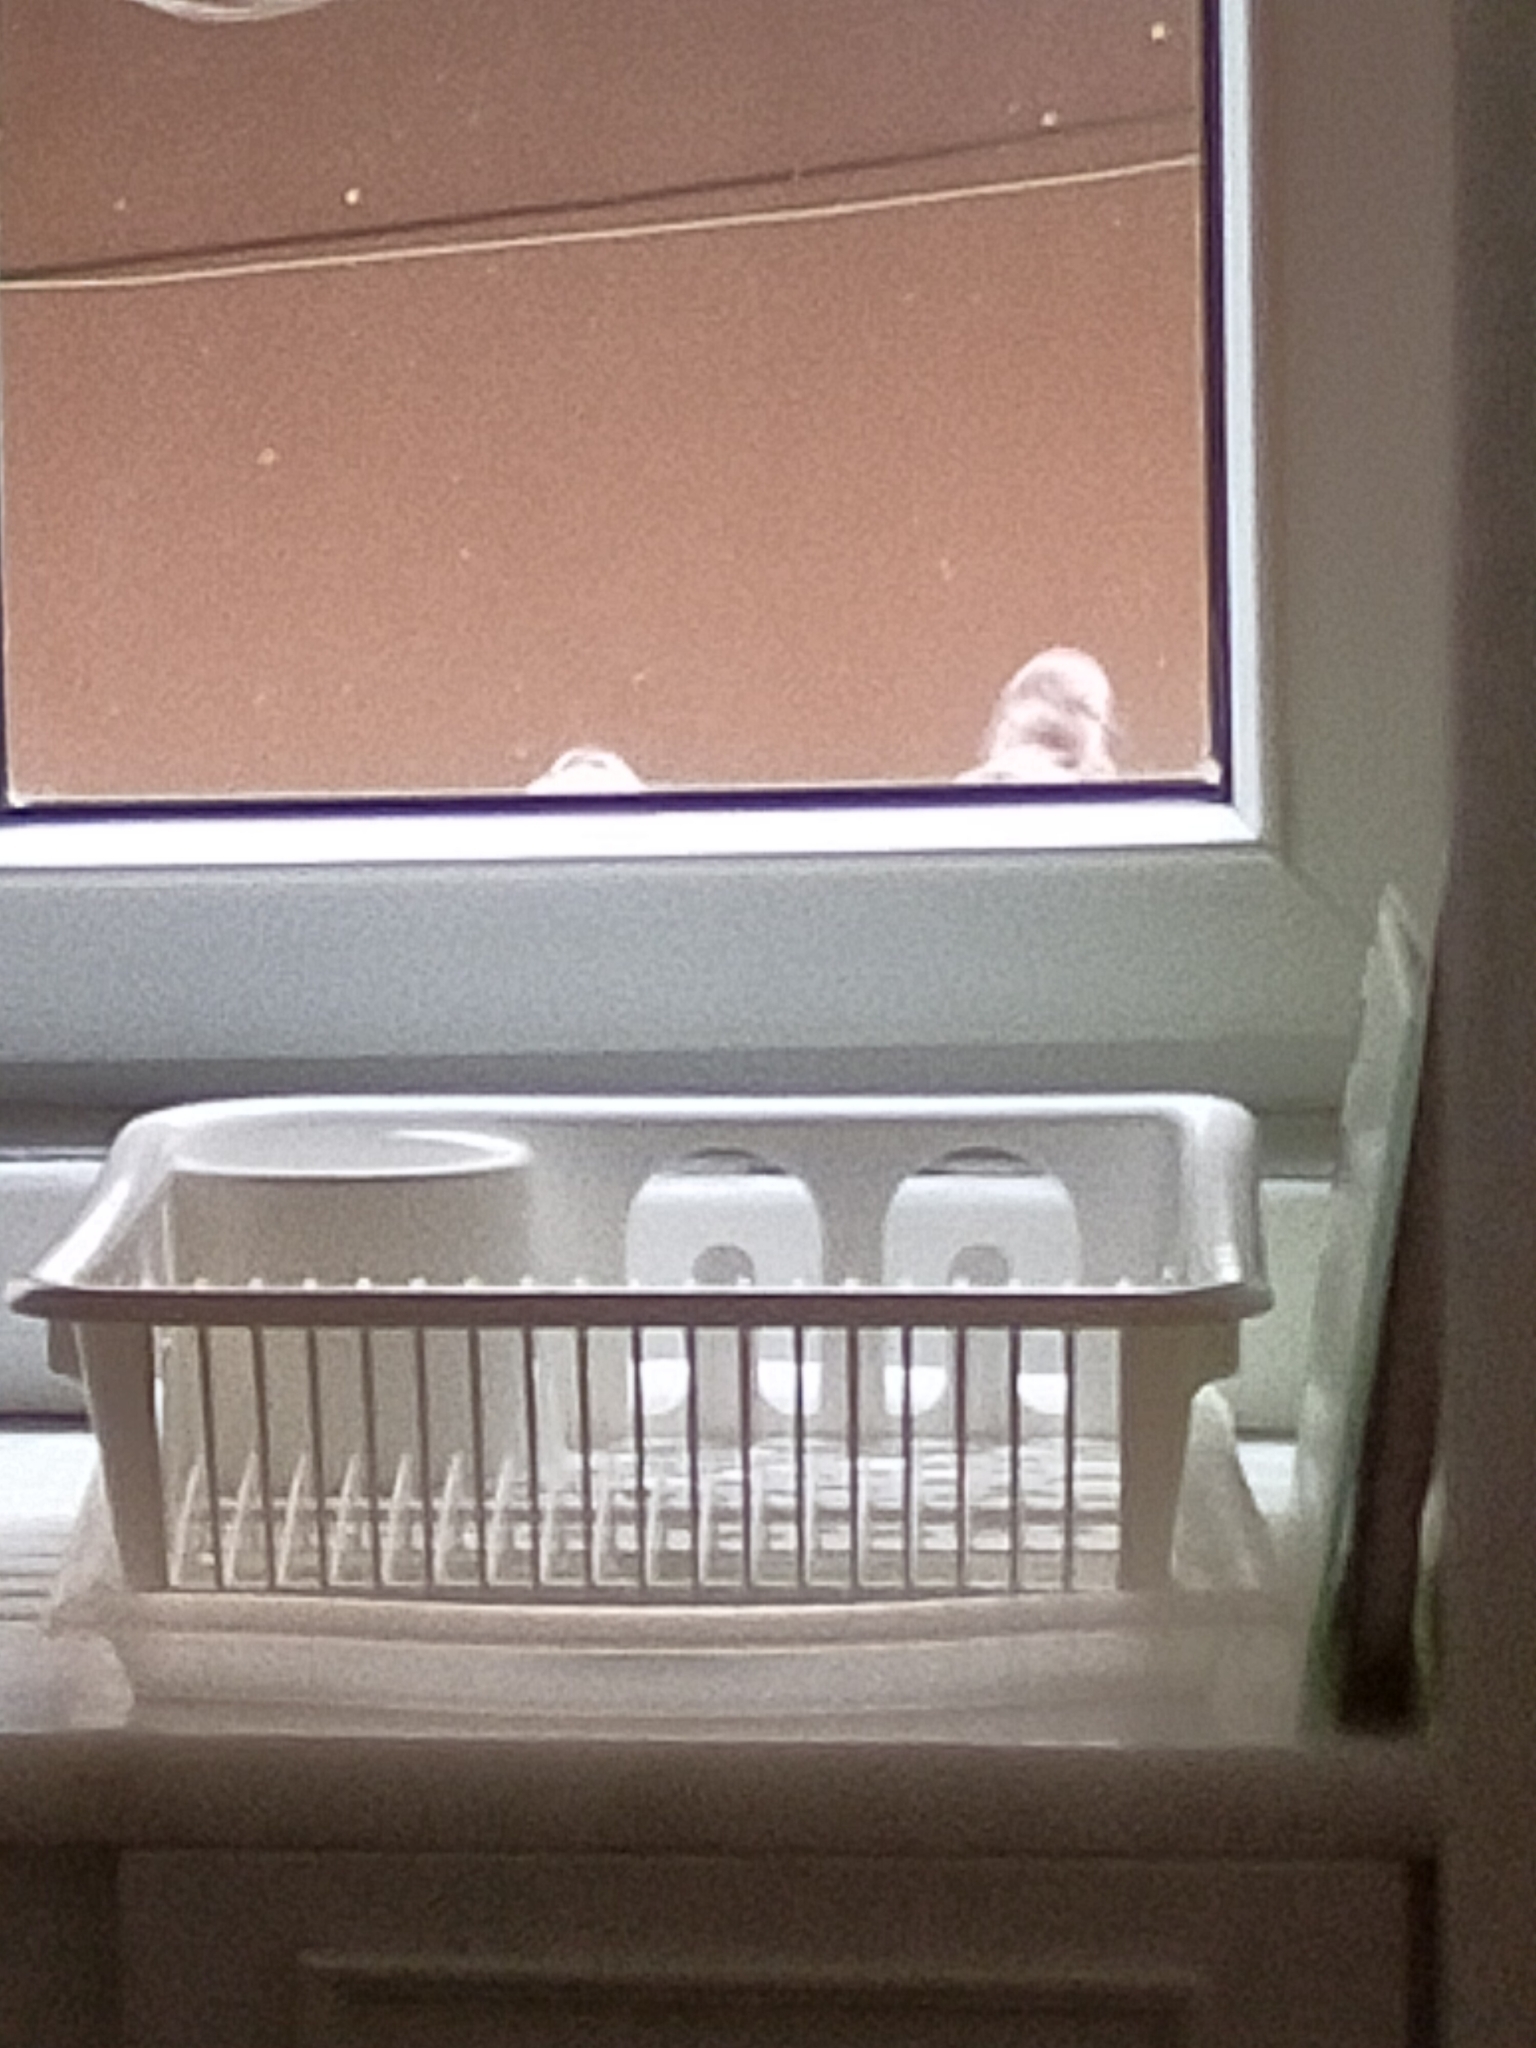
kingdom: Animalia
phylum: Chordata
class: Aves
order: Columbiformes
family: Columbidae
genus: Spilopelia
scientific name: Spilopelia senegalensis
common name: Laughing dove
